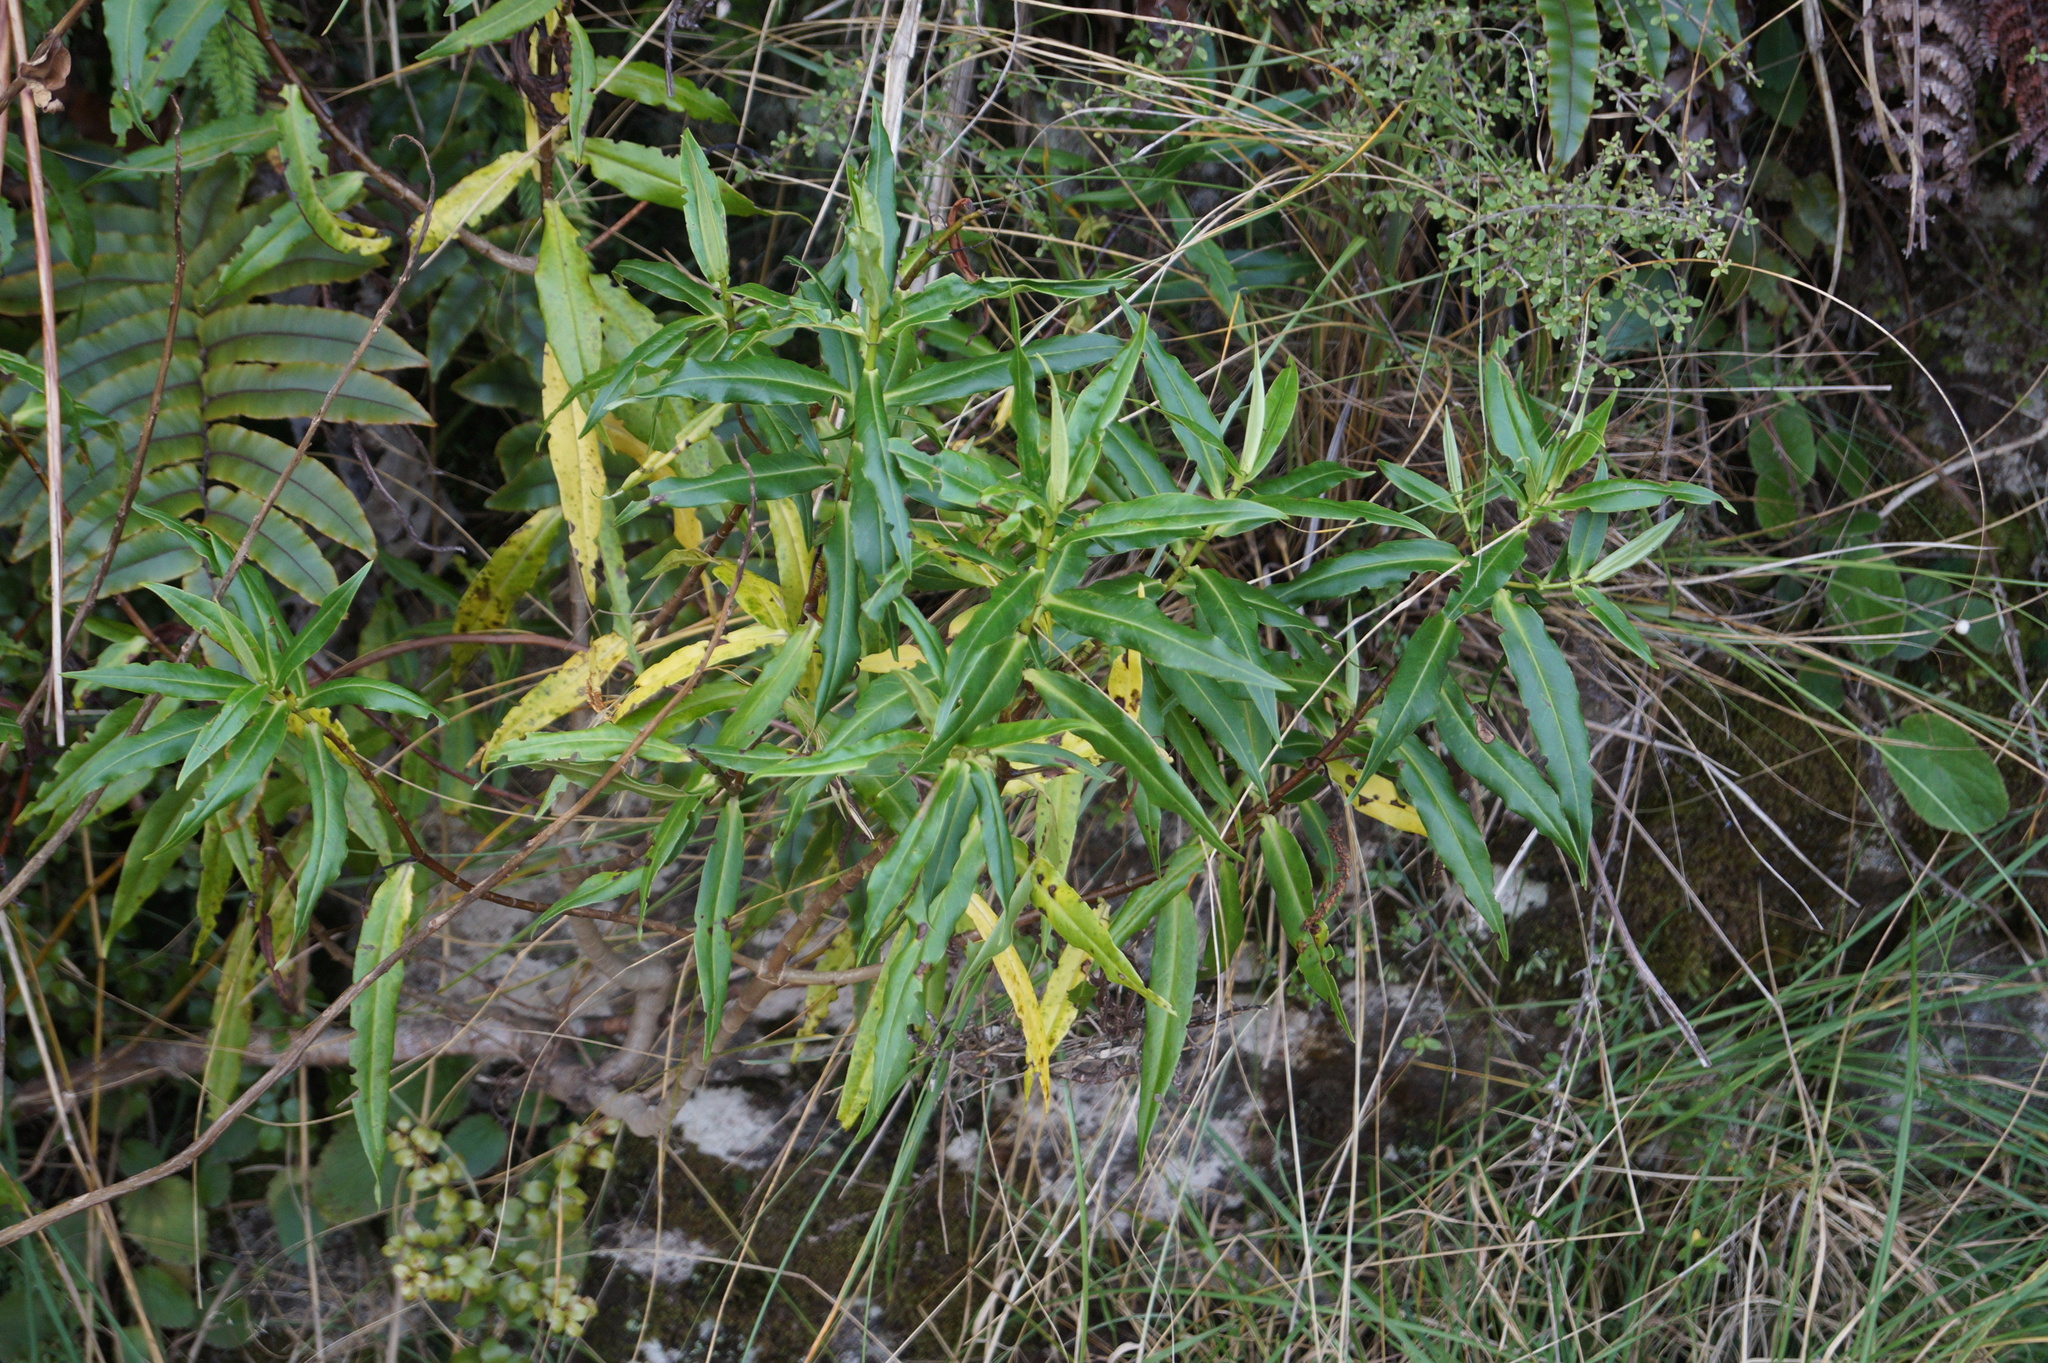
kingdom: Plantae
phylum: Tracheophyta
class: Magnoliopsida
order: Lamiales
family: Plantaginaceae
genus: Veronica
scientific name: Veronica salicifolia
